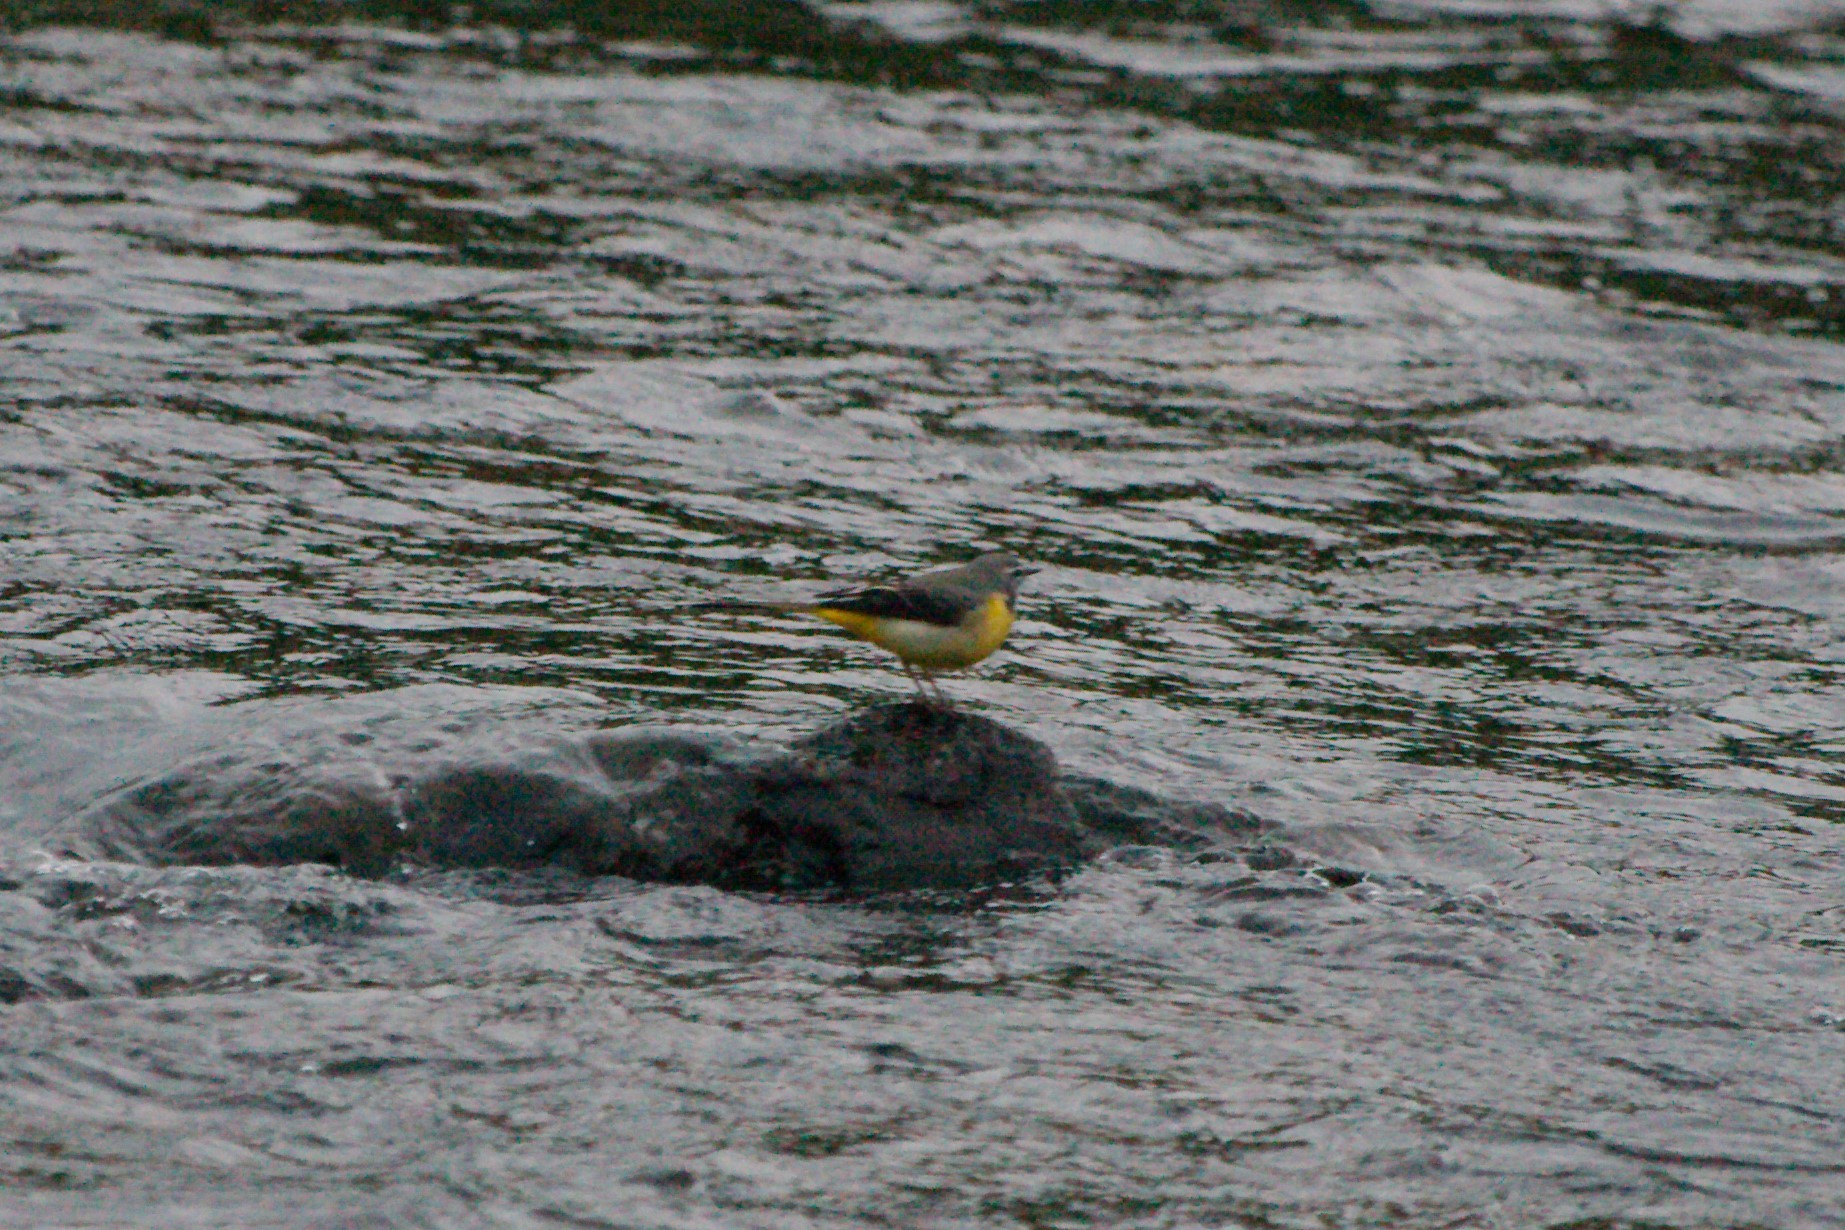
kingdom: Animalia
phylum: Chordata
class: Aves
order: Passeriformes
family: Motacillidae
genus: Motacilla
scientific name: Motacilla cinerea
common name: Grey wagtail
